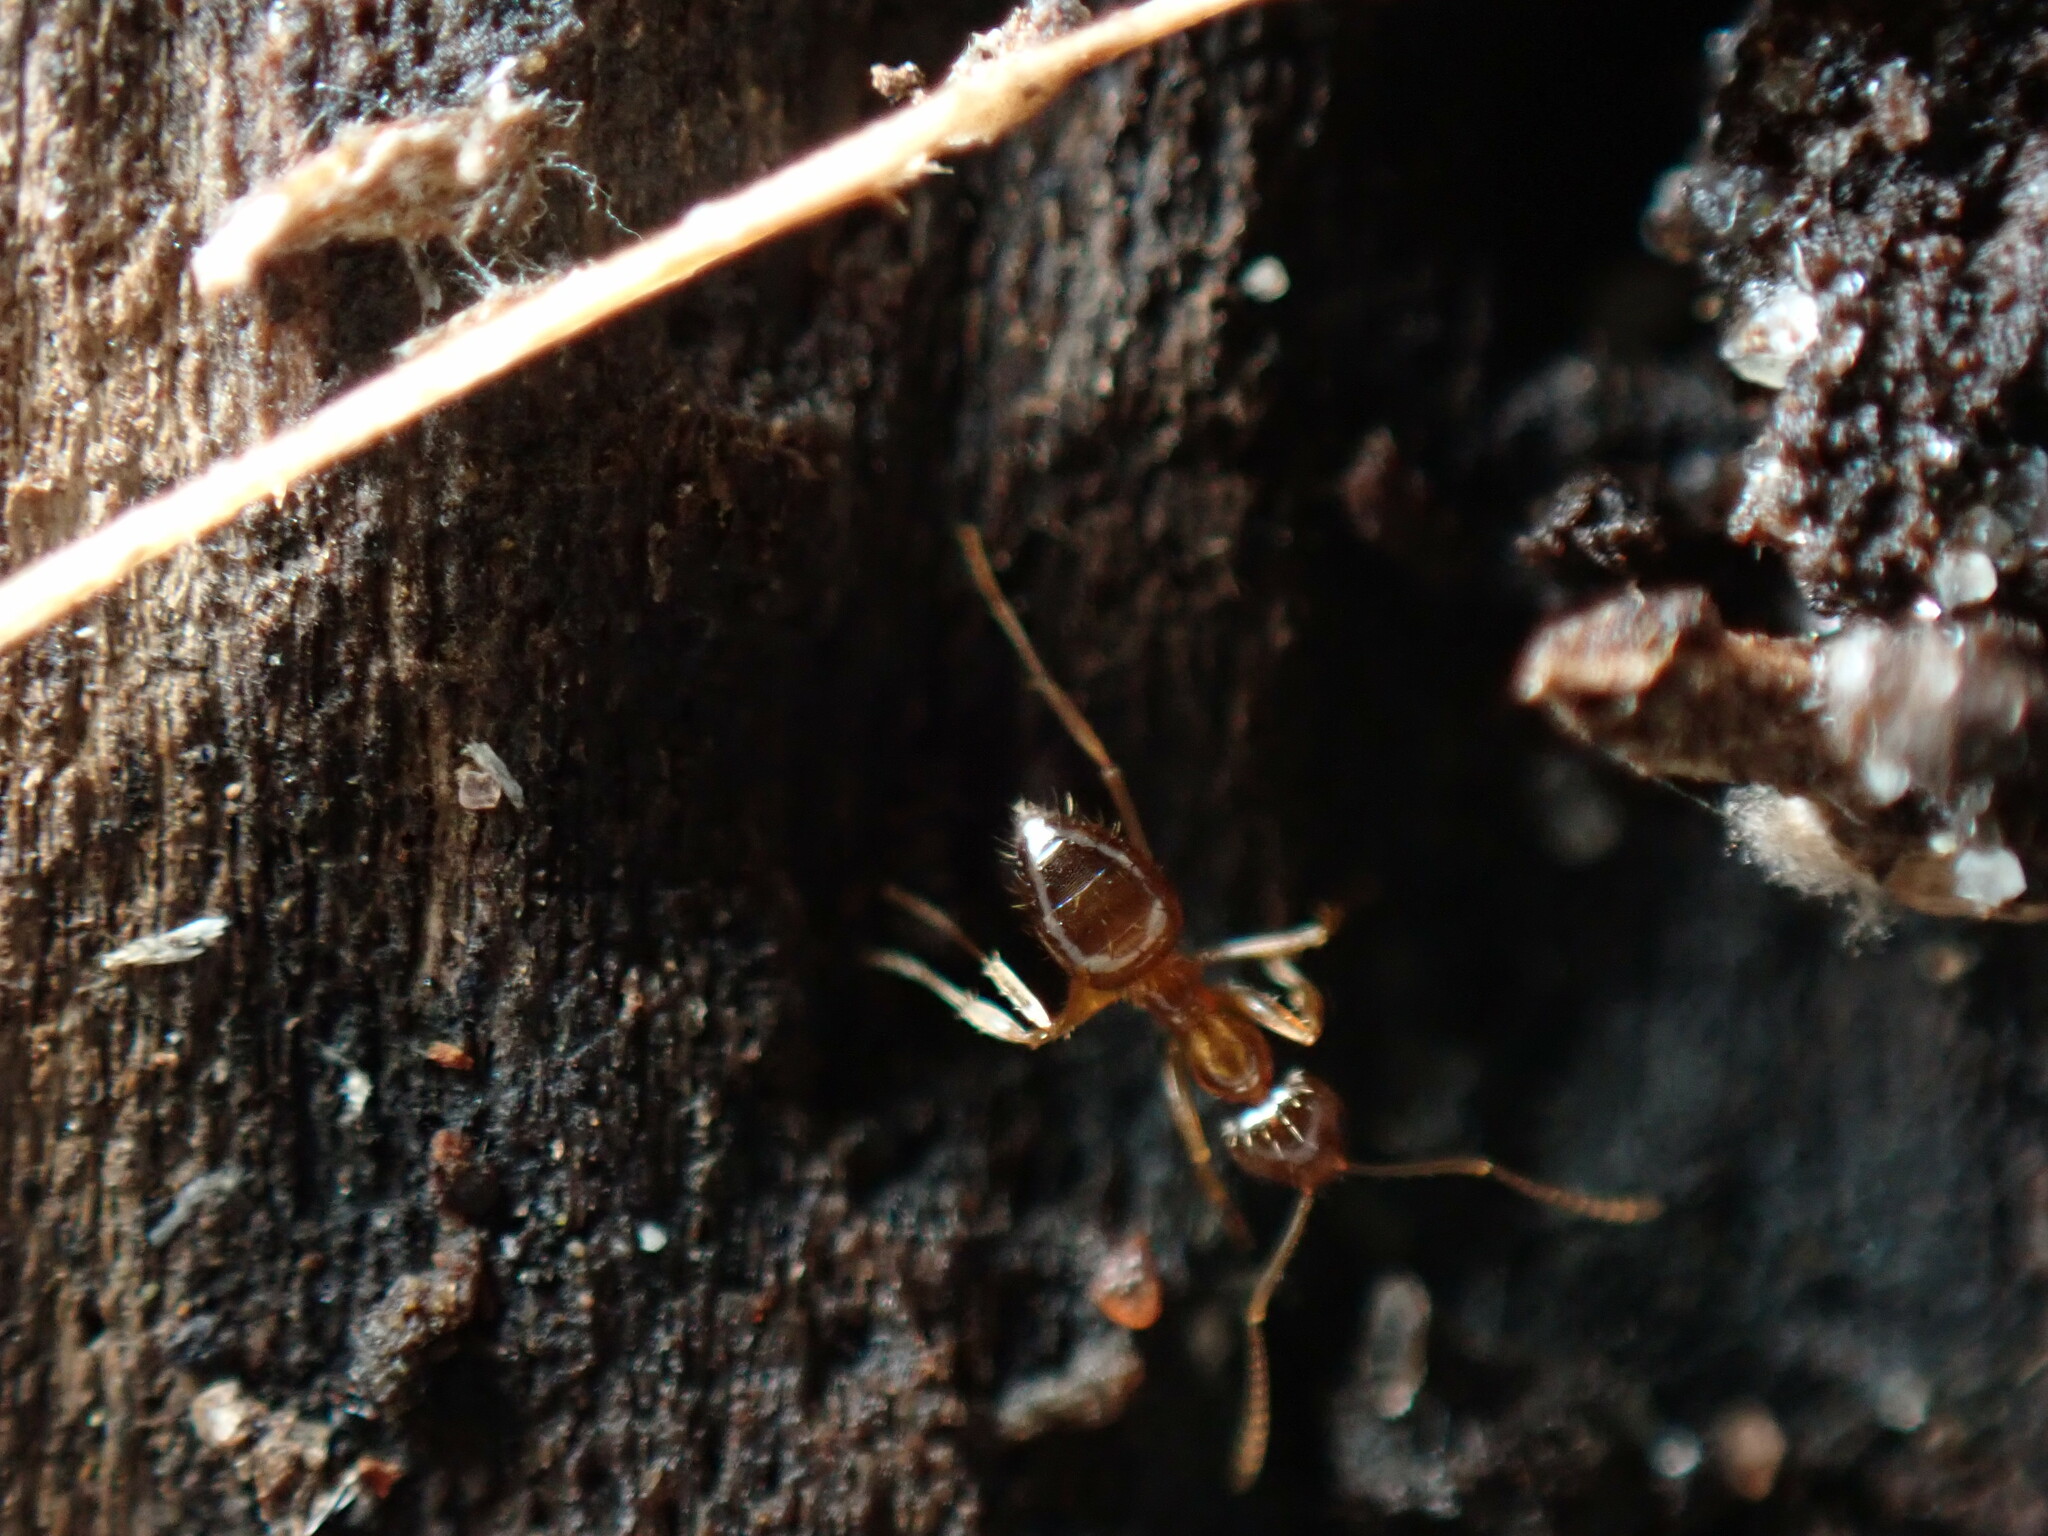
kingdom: Animalia
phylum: Arthropoda
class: Insecta
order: Hymenoptera
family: Formicidae
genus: Paratrechina
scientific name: Paratrechina flavipes
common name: Eastern asian formicine ant
